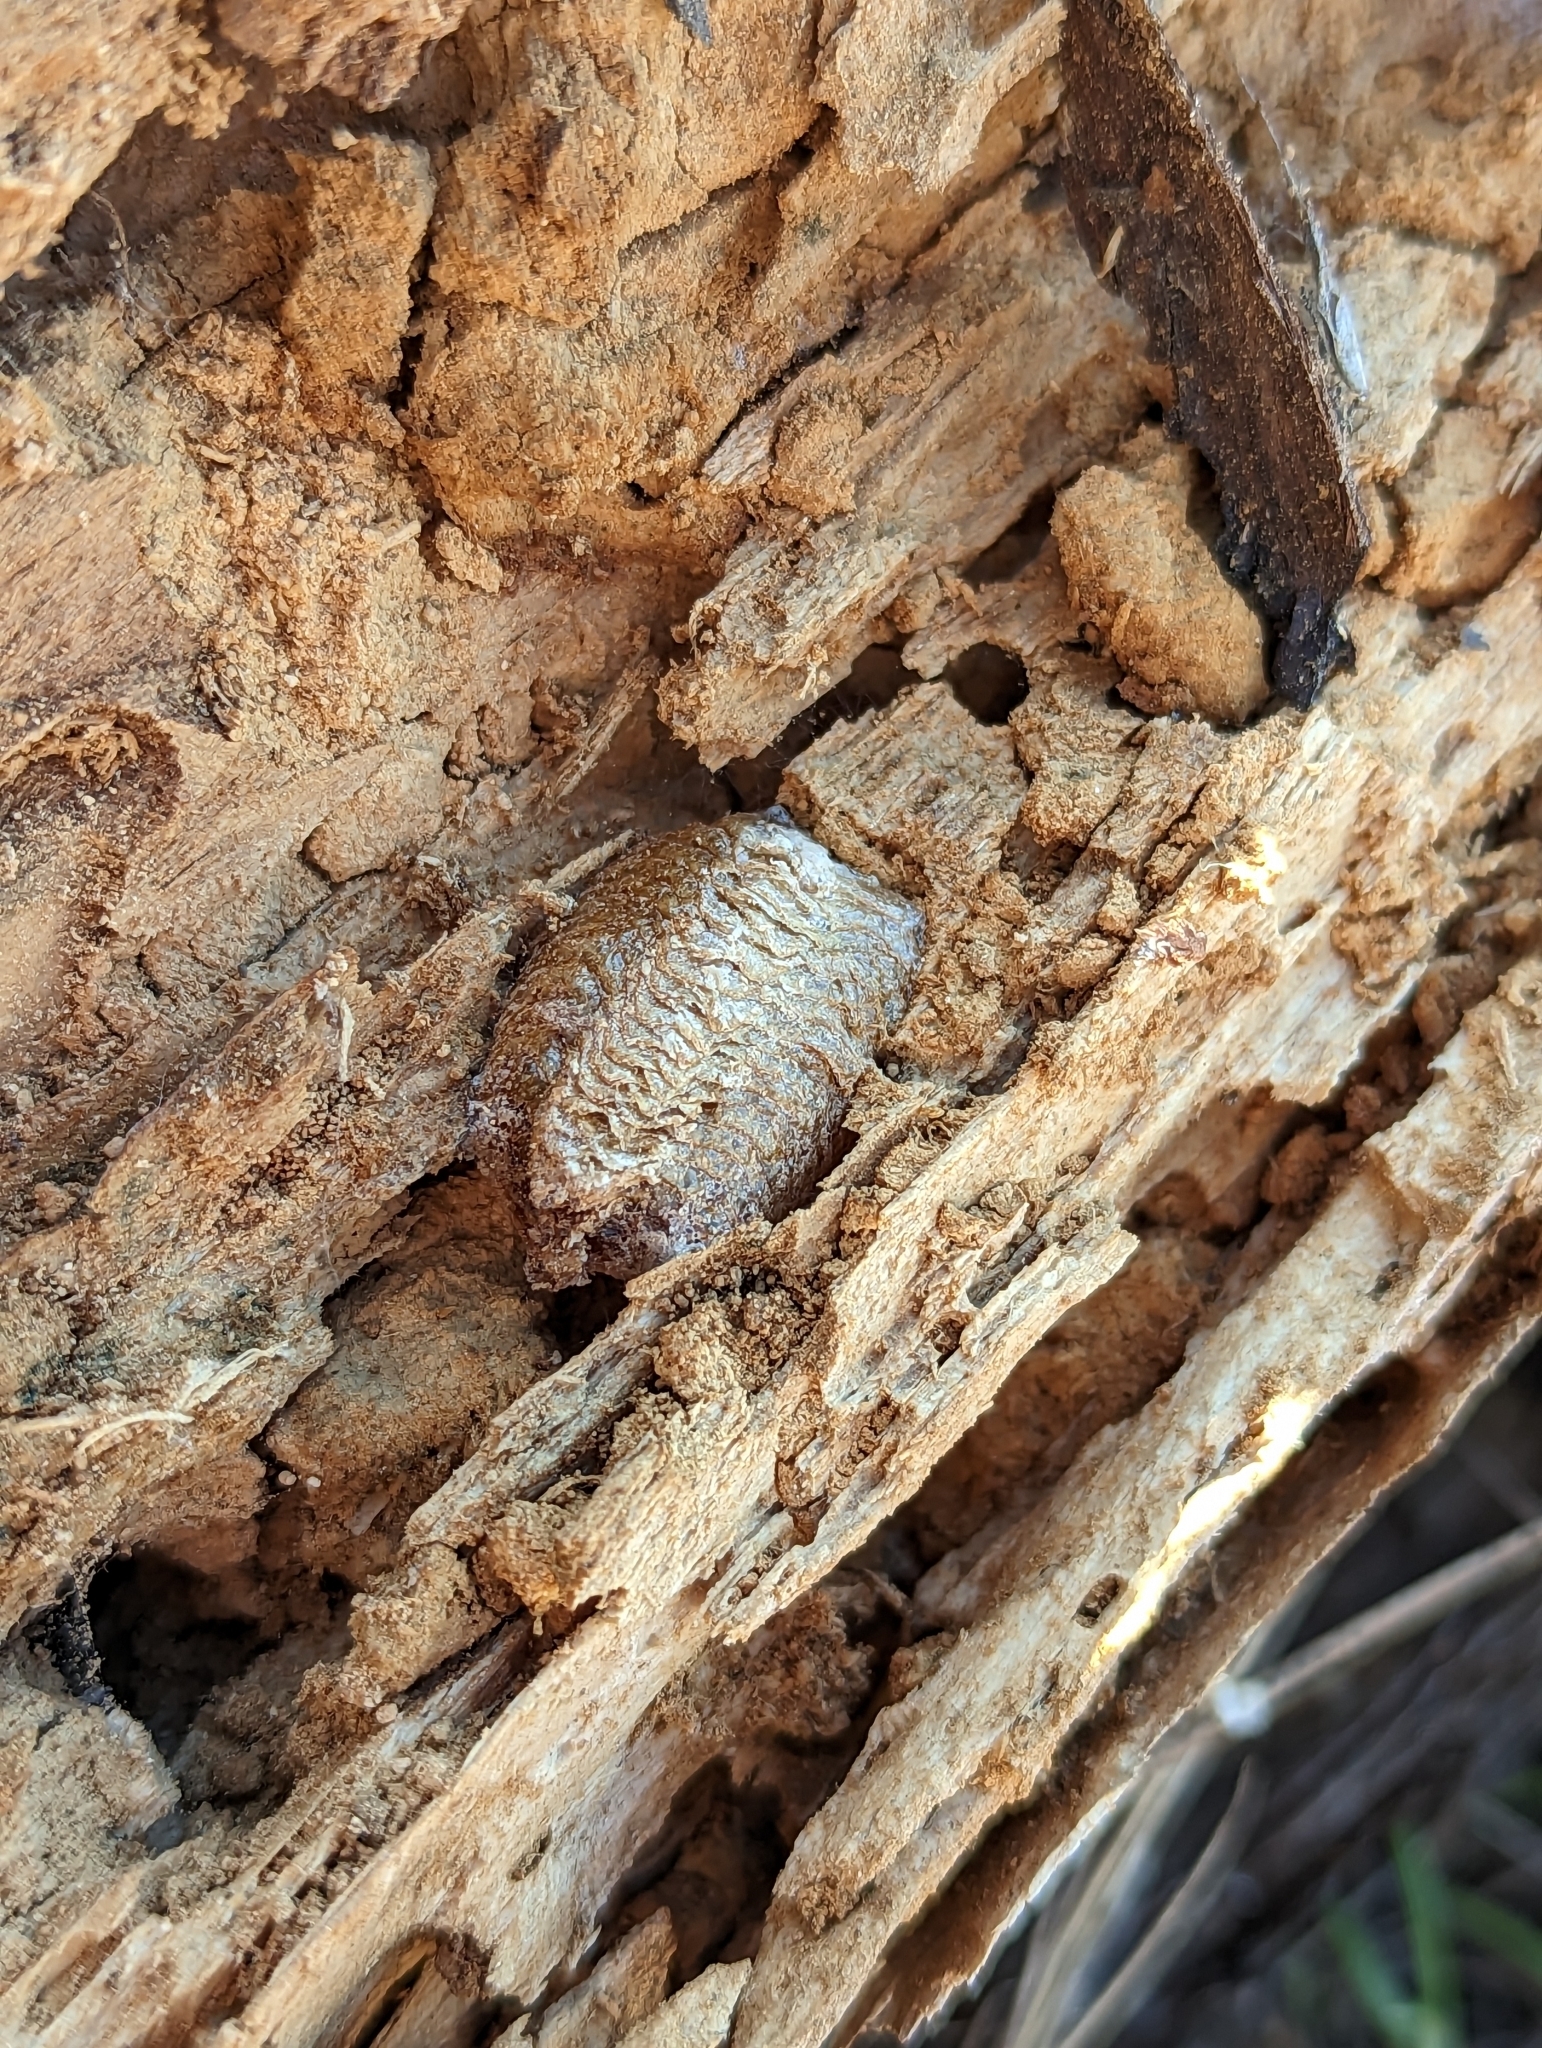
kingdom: Animalia
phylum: Arthropoda
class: Insecta
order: Mantodea
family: Mantidae
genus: Mantis
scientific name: Mantis religiosa
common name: Praying mantis
